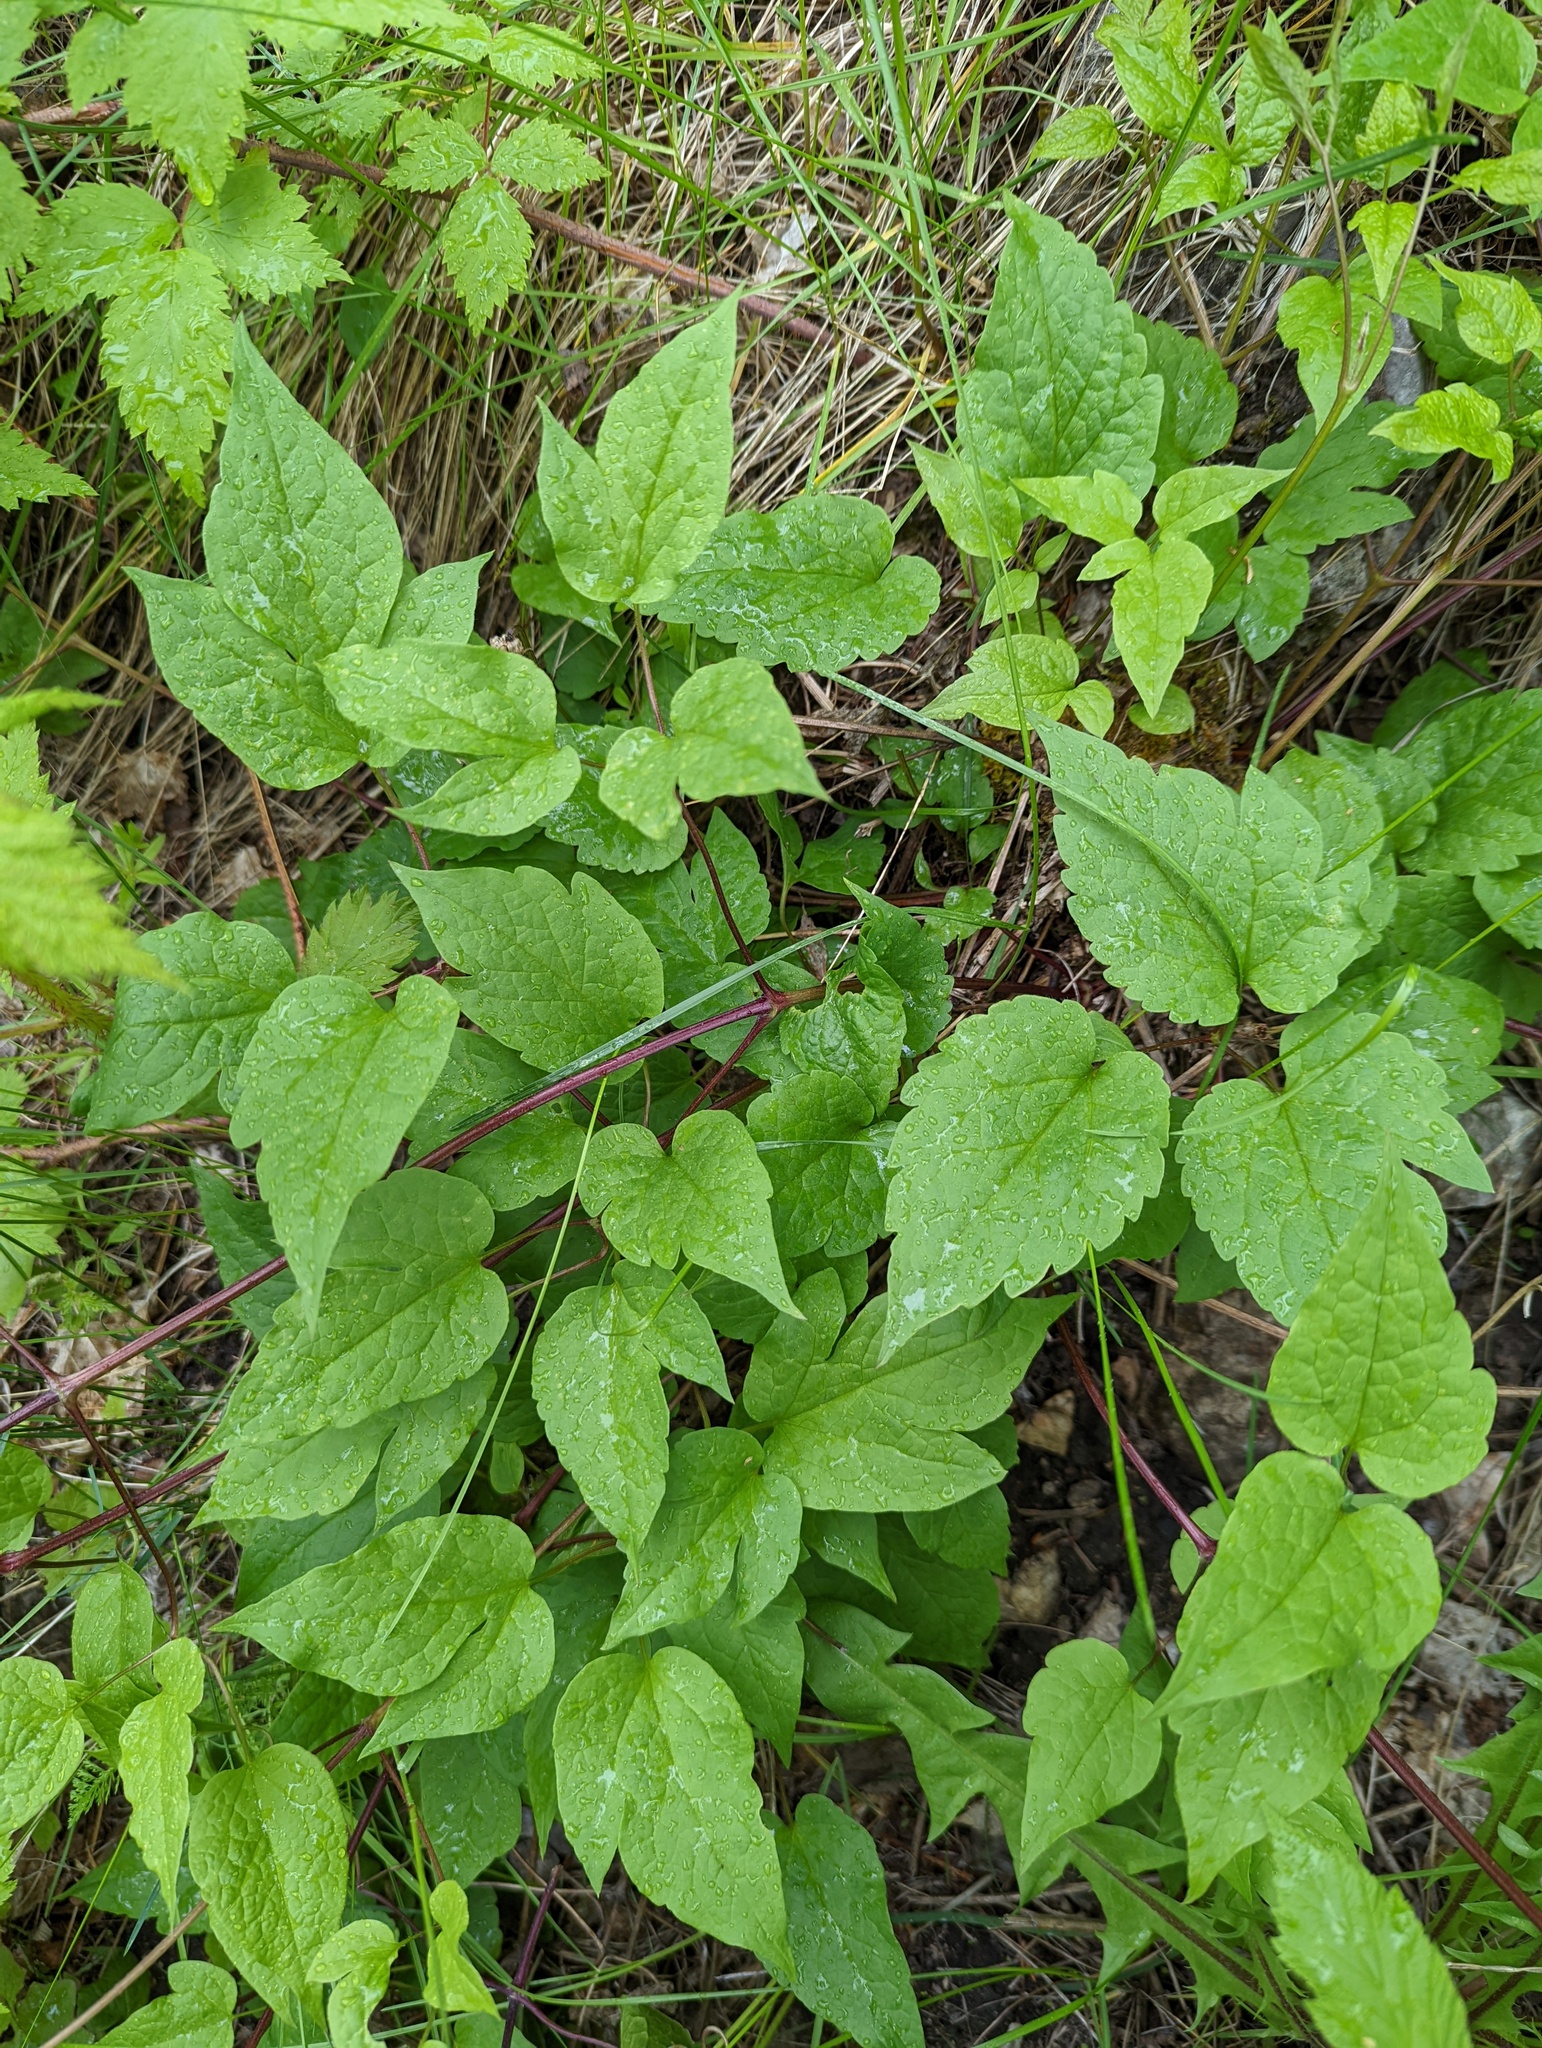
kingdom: Plantae
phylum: Tracheophyta
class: Magnoliopsida
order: Ranunculales
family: Ranunculaceae
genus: Clematis
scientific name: Clematis occidentalis
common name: Purple clematis
